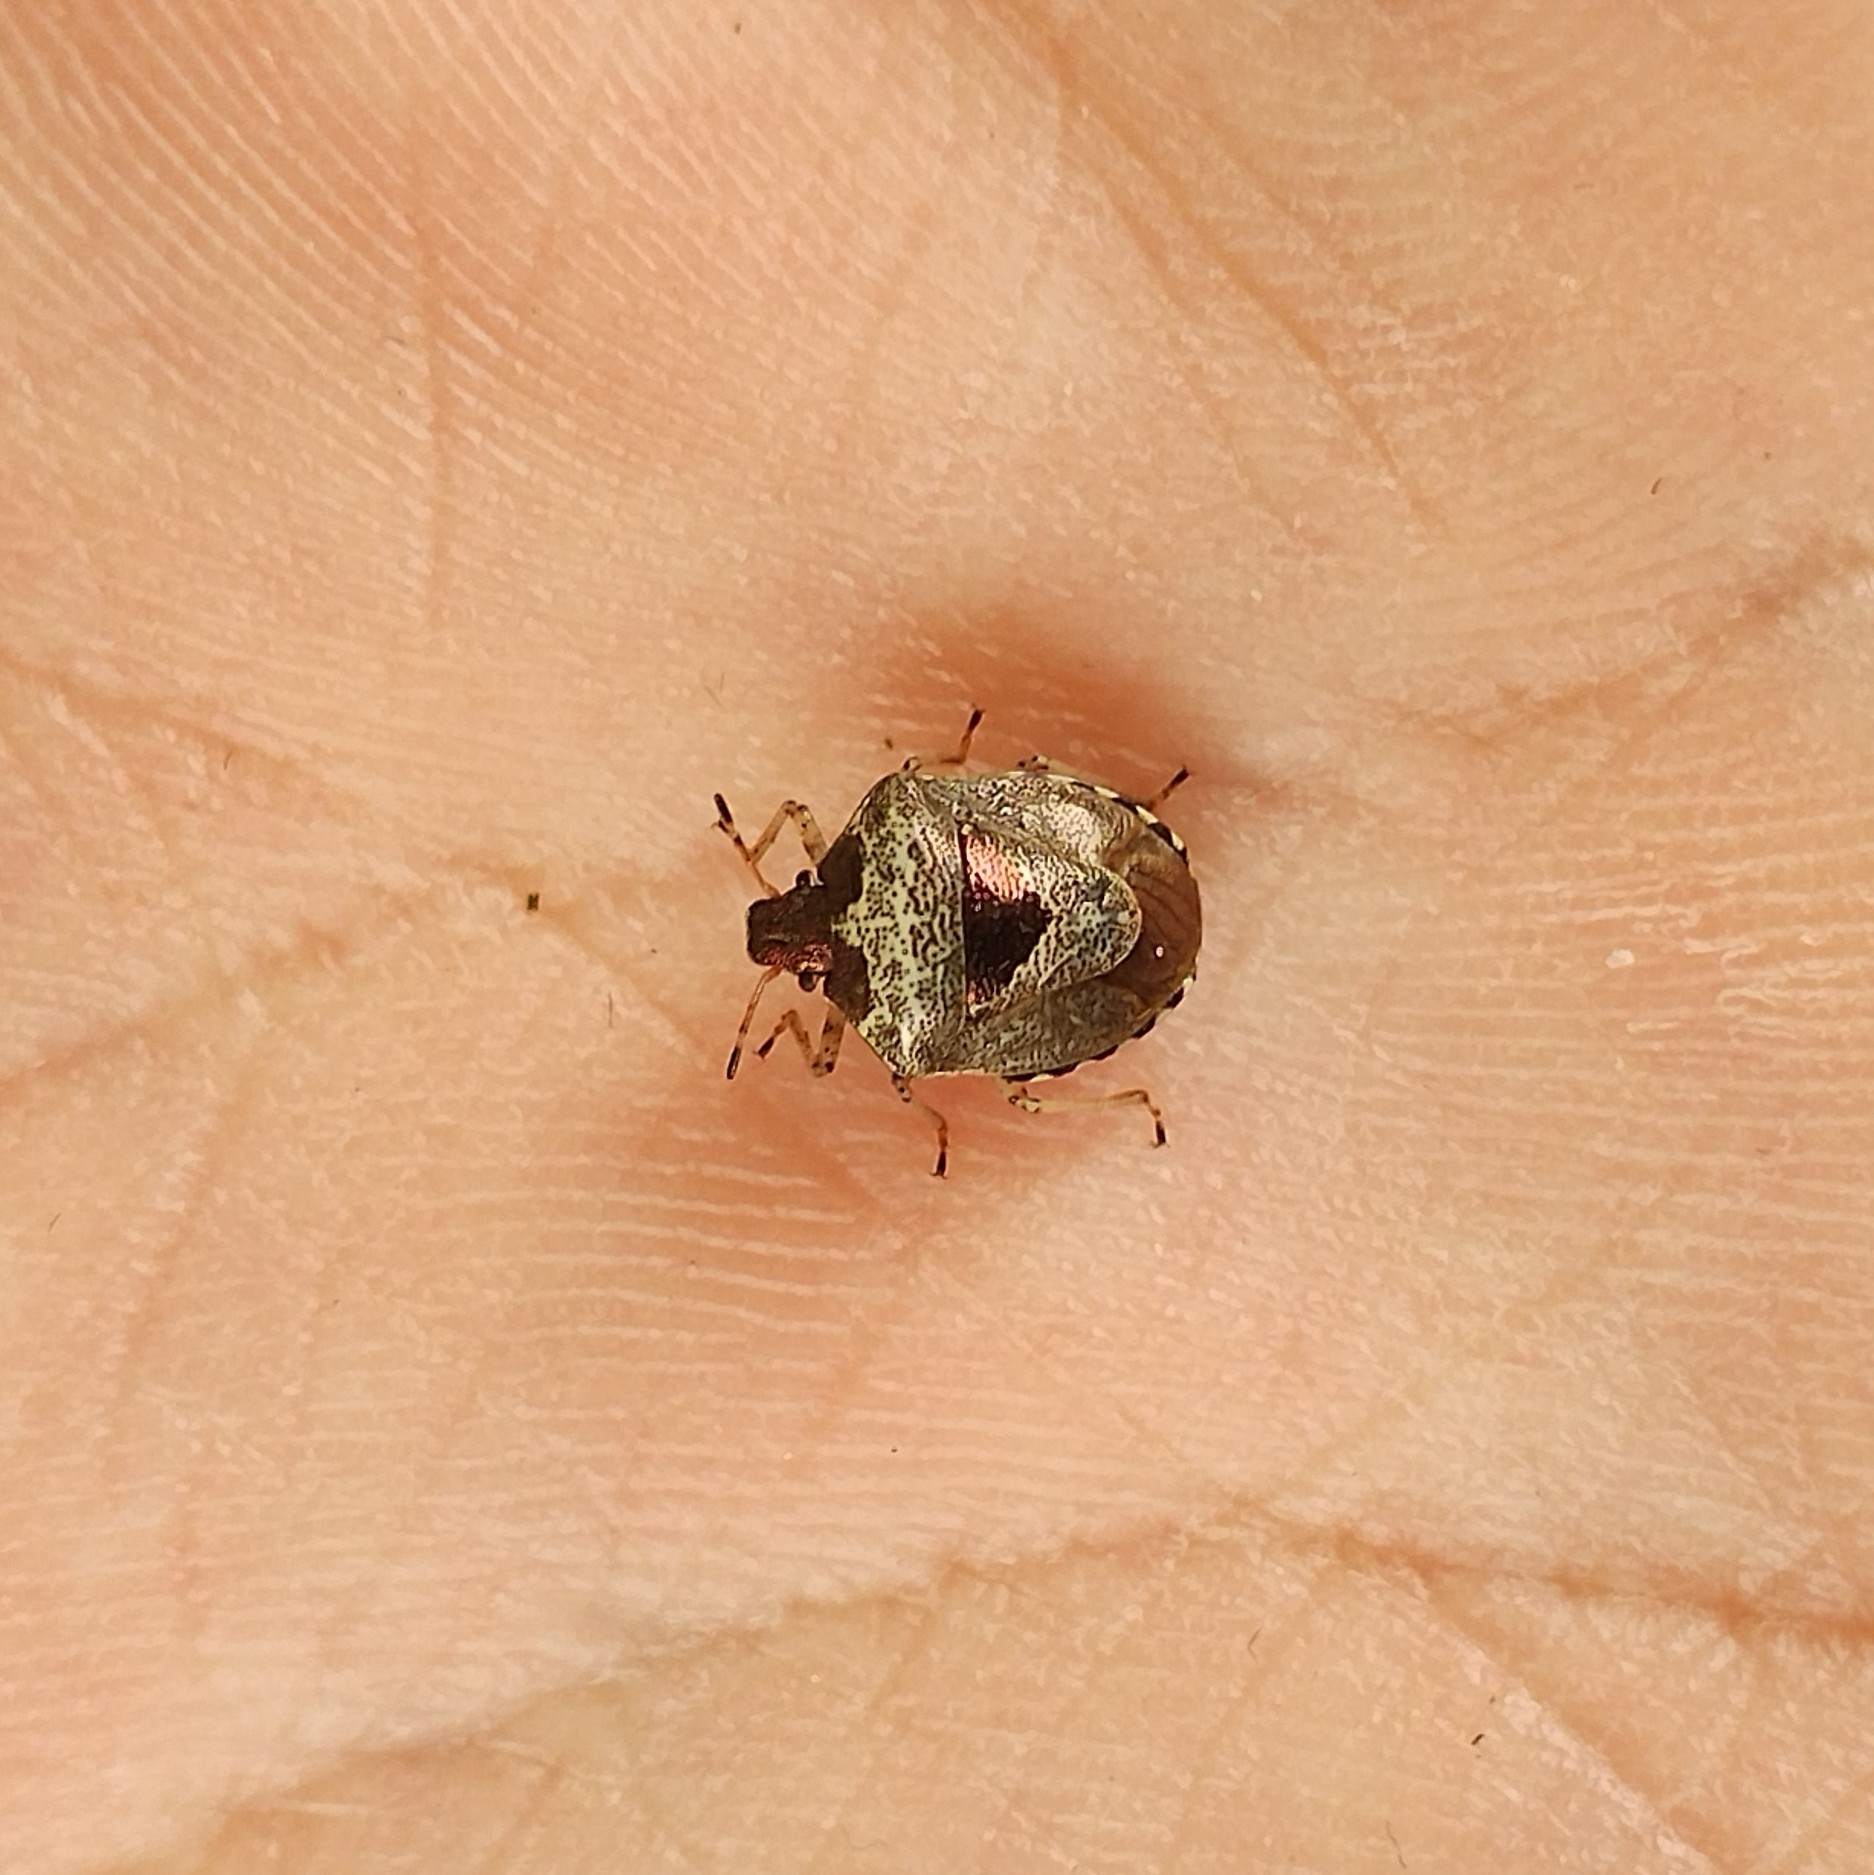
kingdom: Animalia
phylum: Arthropoda
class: Insecta
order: Hemiptera
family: Pentatomidae
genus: Eysarcoris
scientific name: Eysarcoris venustissimus
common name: Woundwort shieldbug
